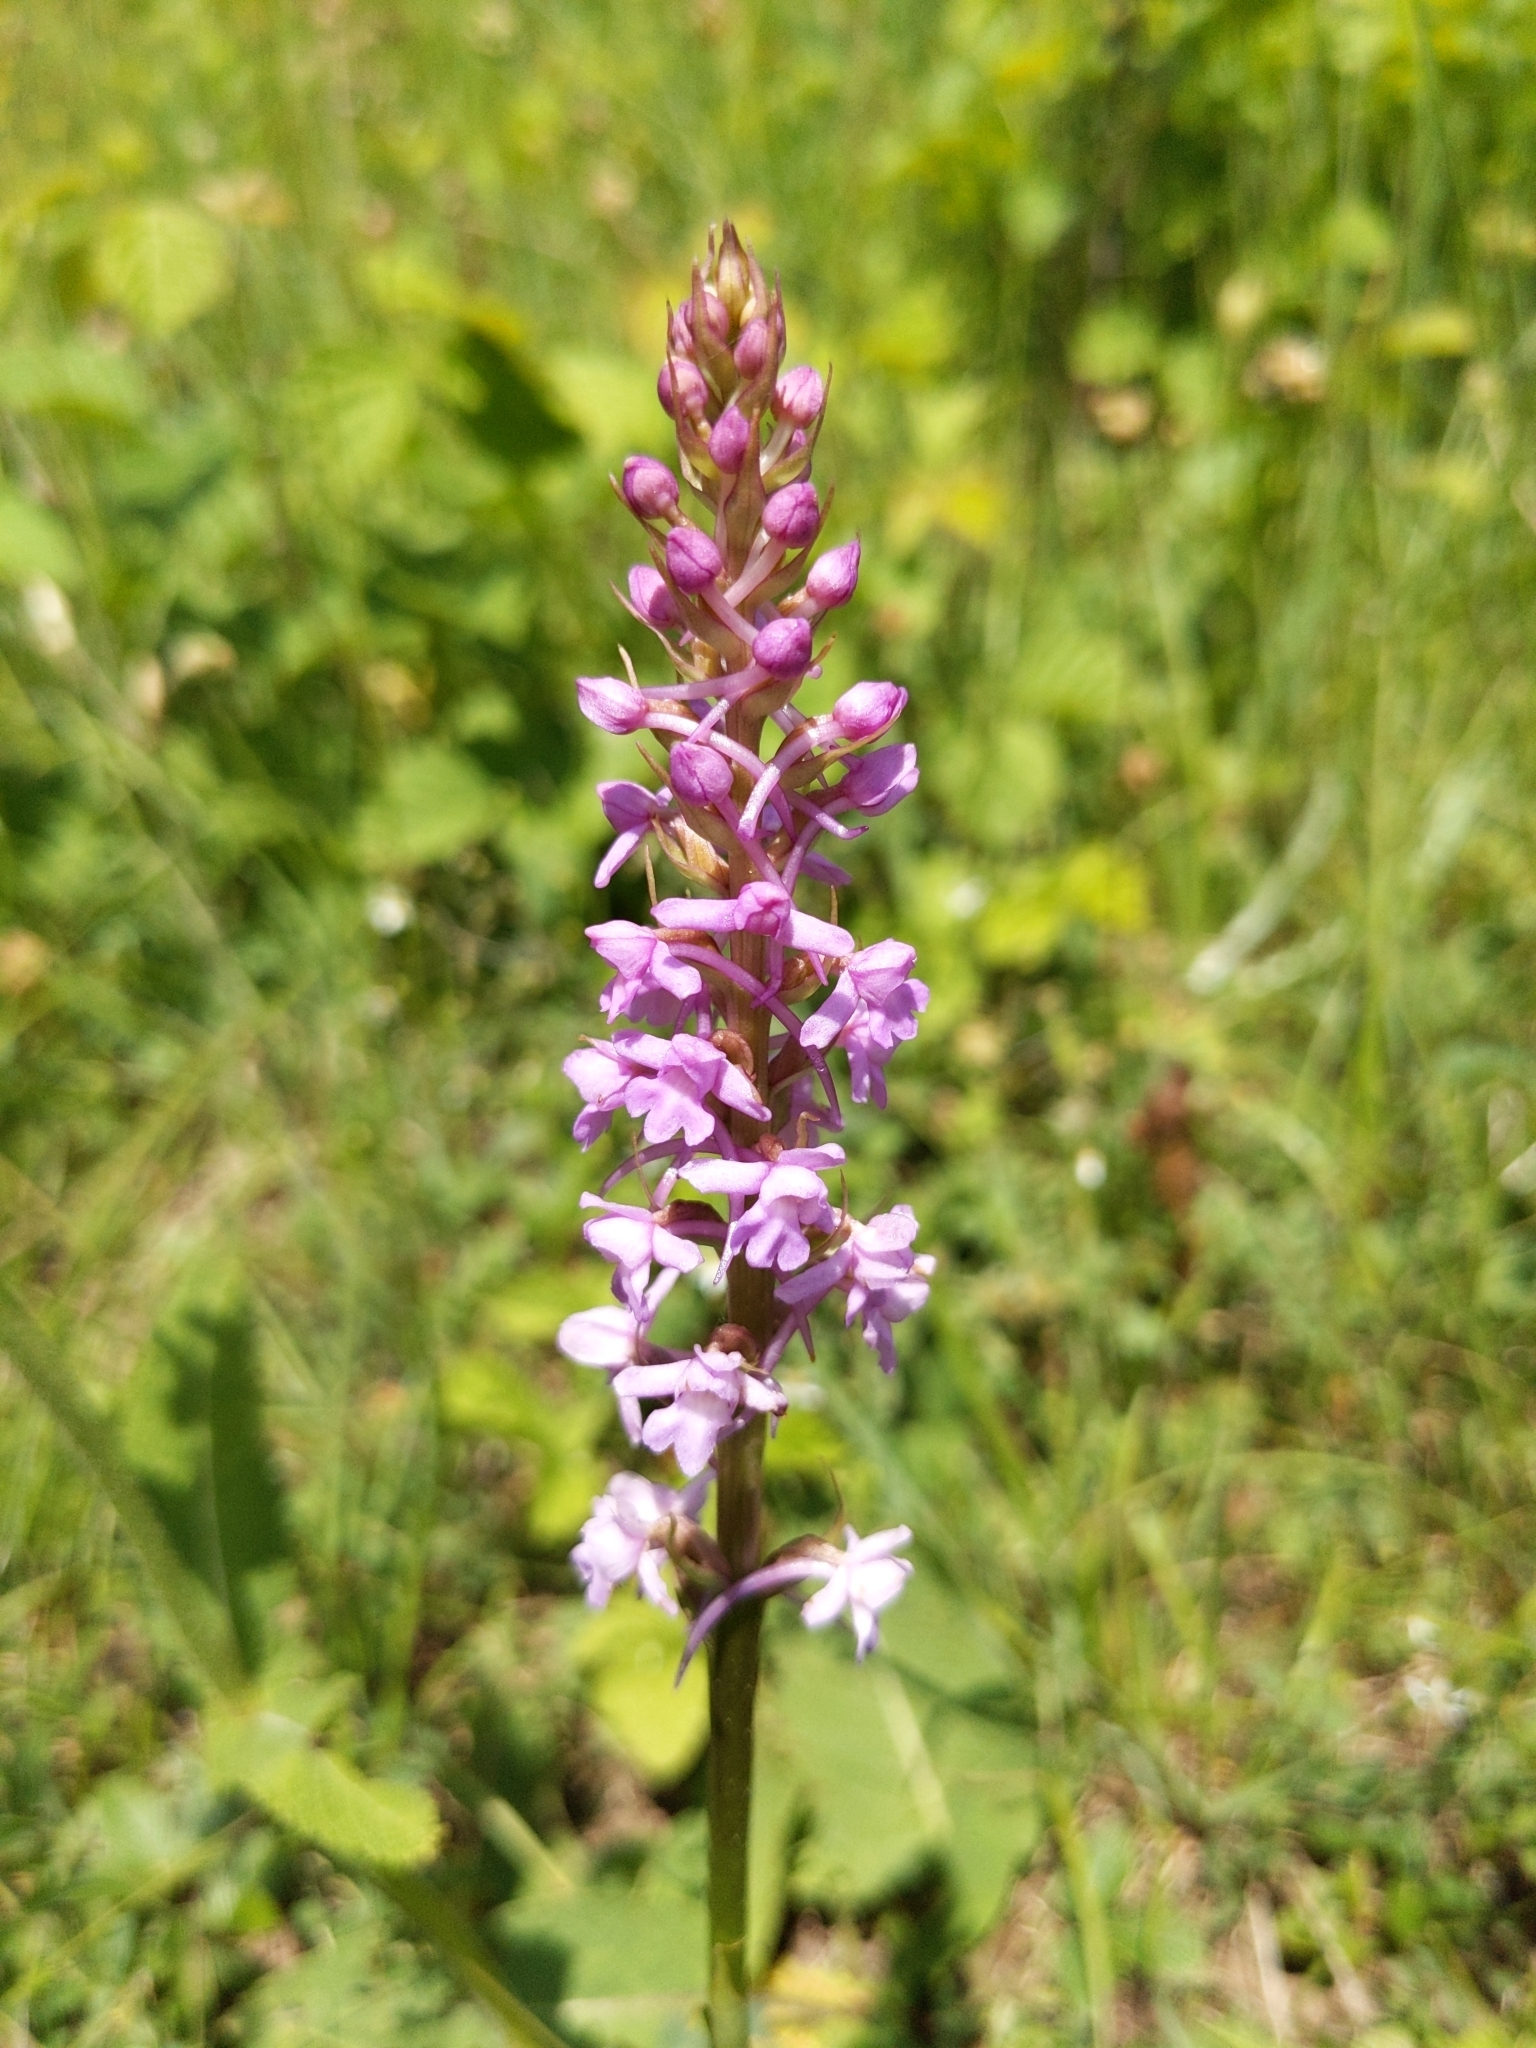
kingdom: Plantae
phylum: Tracheophyta
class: Liliopsida
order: Asparagales
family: Orchidaceae
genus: Gymnadenia
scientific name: Gymnadenia conopsea
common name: Fragrant orchid
